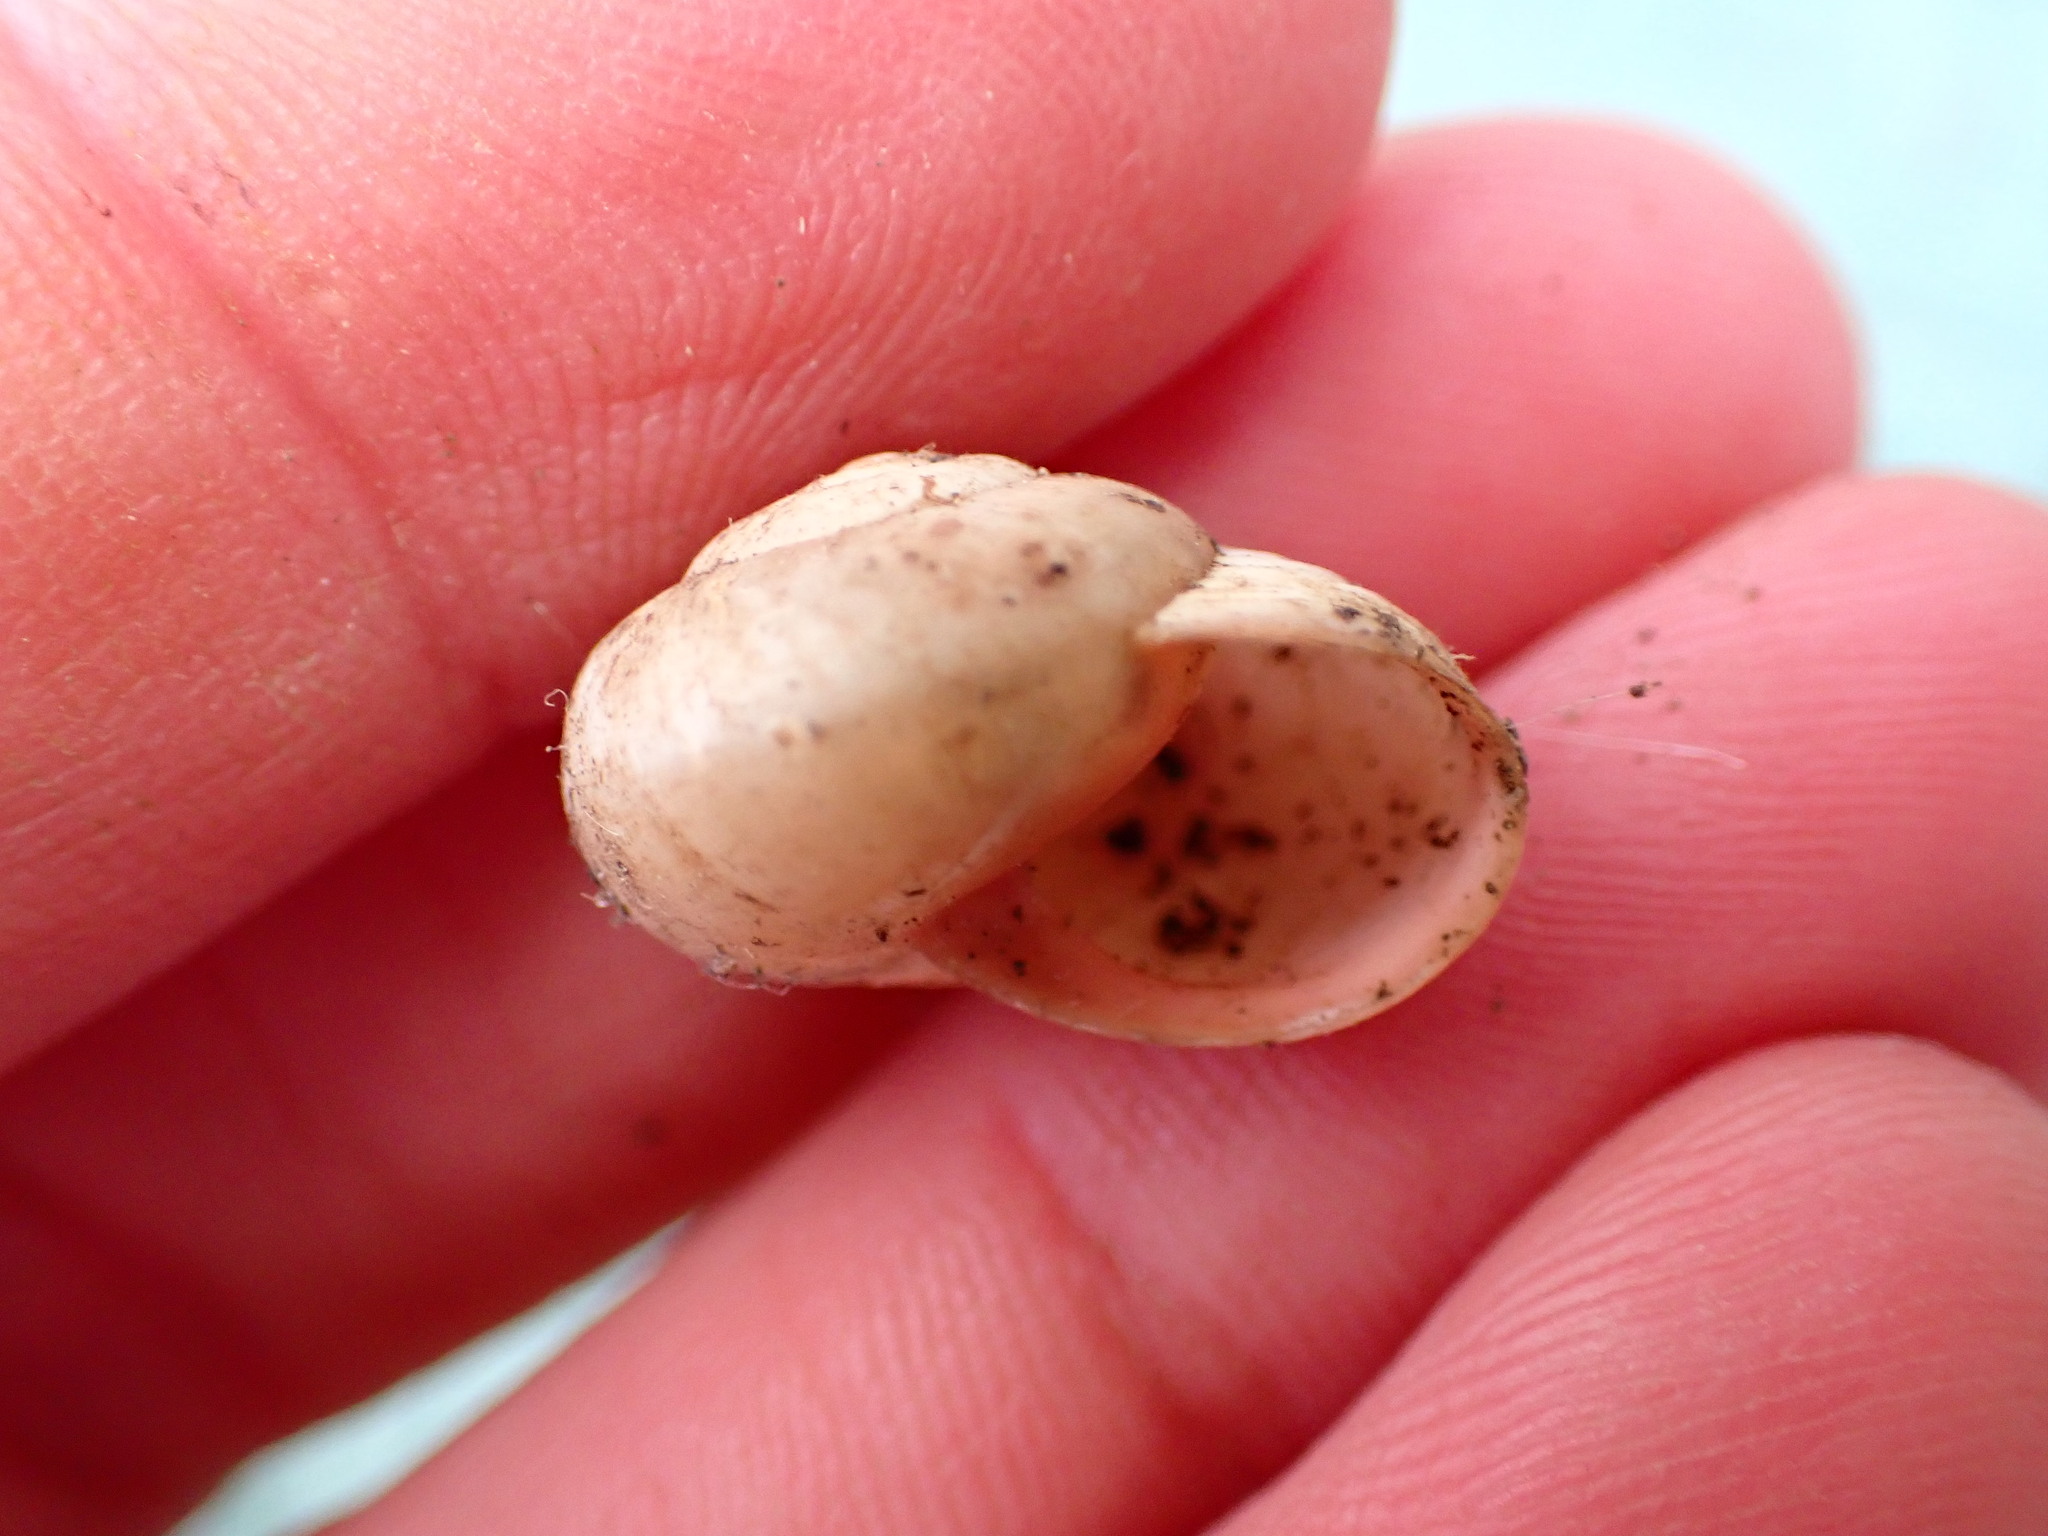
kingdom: Animalia
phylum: Mollusca
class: Gastropoda
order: Stylommatophora
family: Helicidae
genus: Theba
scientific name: Theba pisana
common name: White snail
